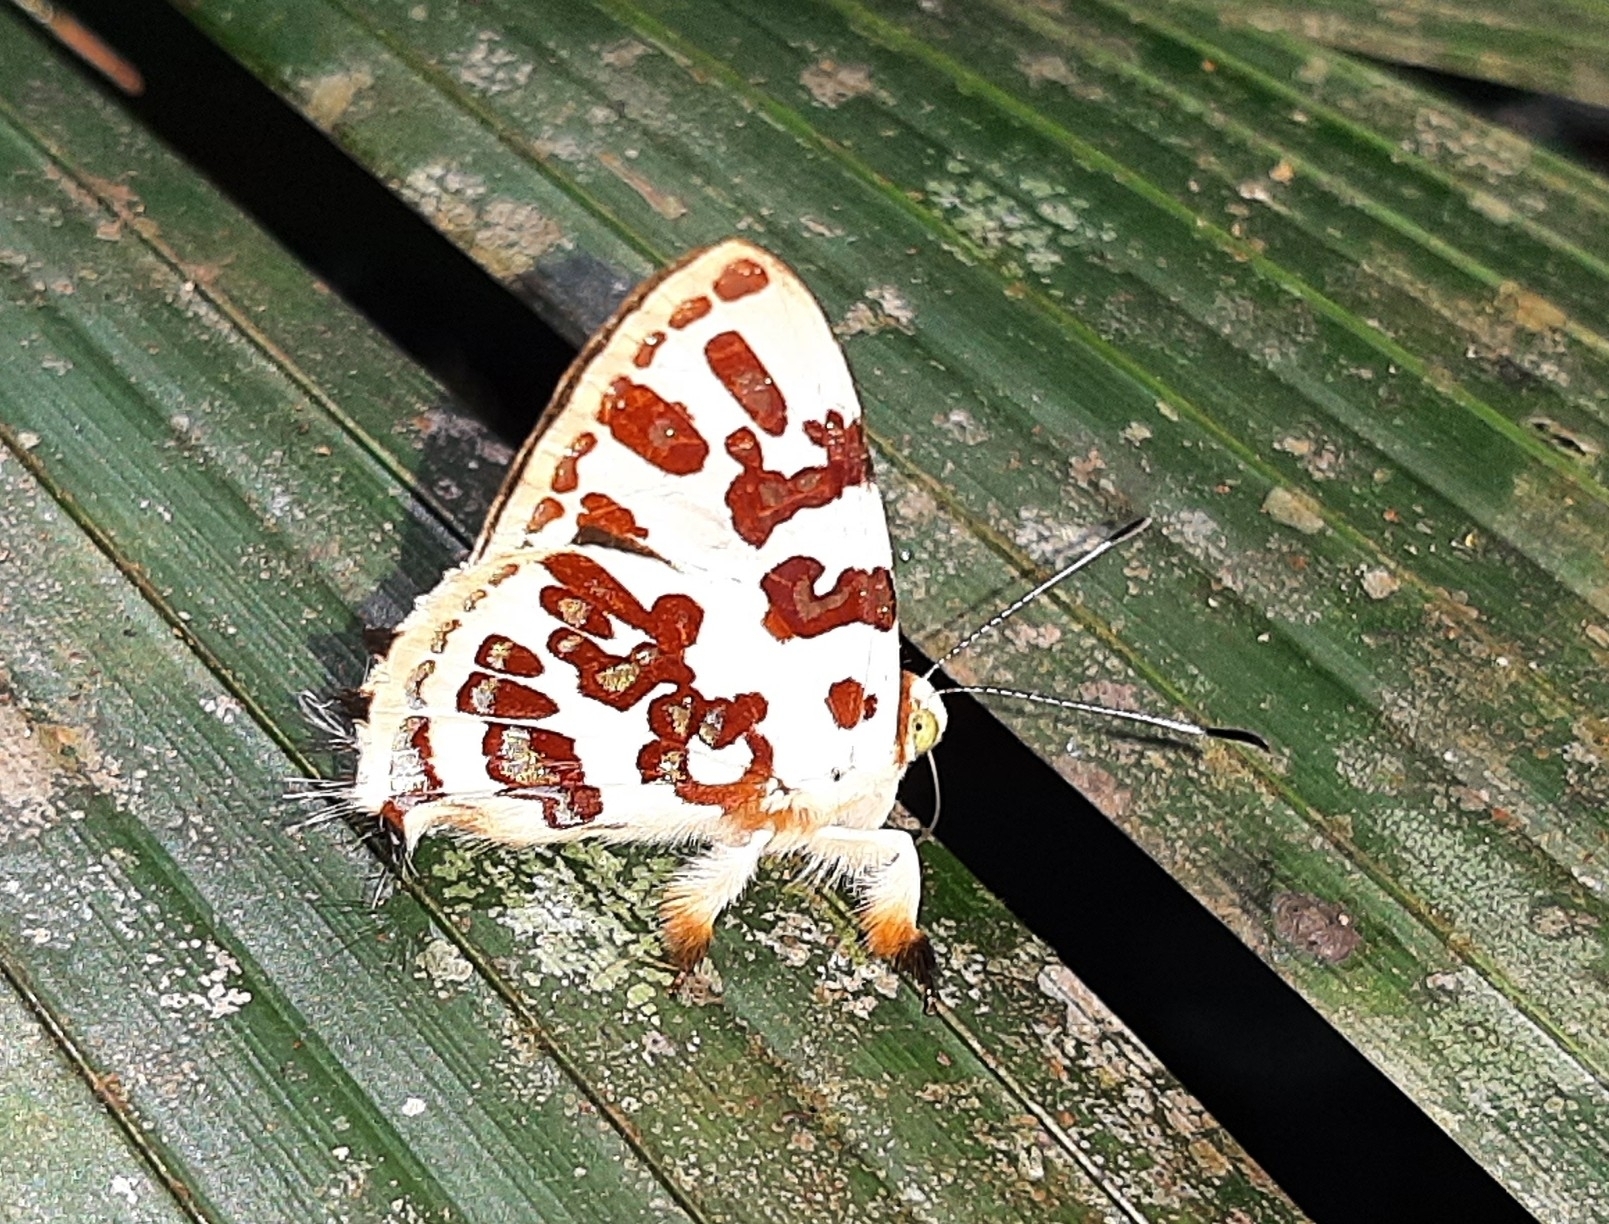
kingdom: Animalia
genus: Anteros
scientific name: Anteros acheus
